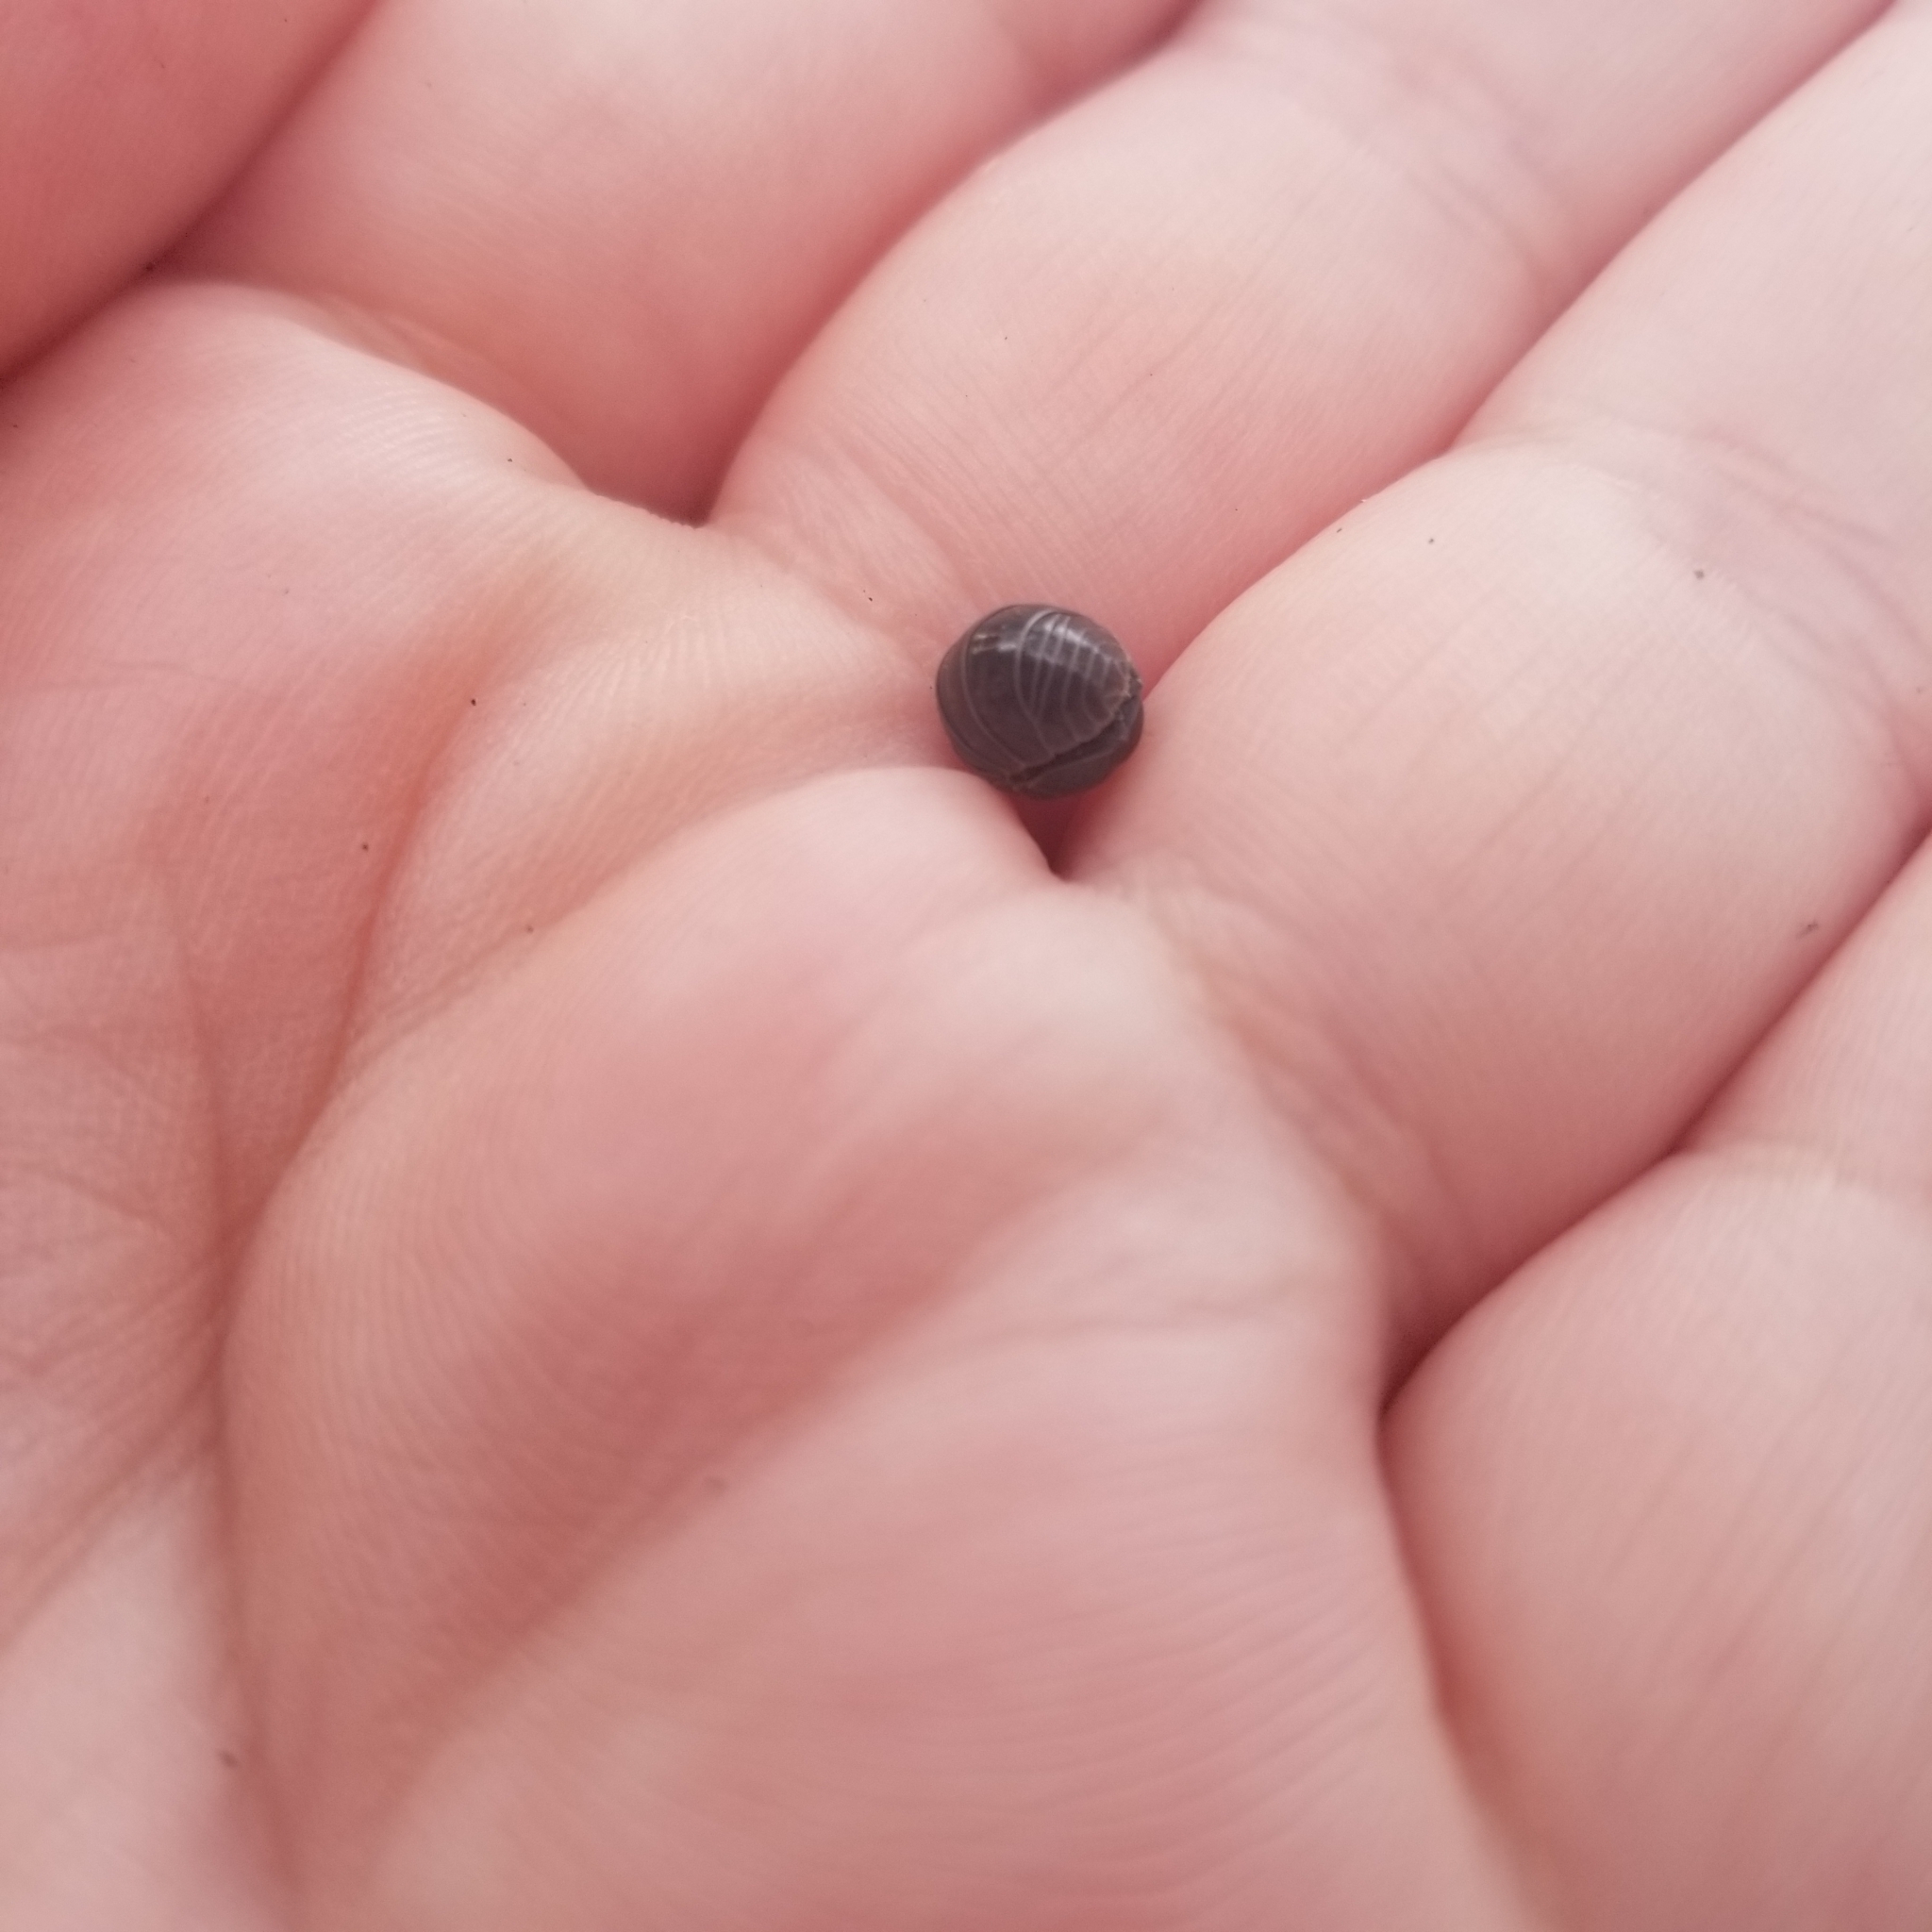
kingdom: Animalia
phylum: Arthropoda
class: Malacostraca
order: Isopoda
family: Armadillidiidae
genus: Armadillidium
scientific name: Armadillidium vulgare
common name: Common pill woodlouse
